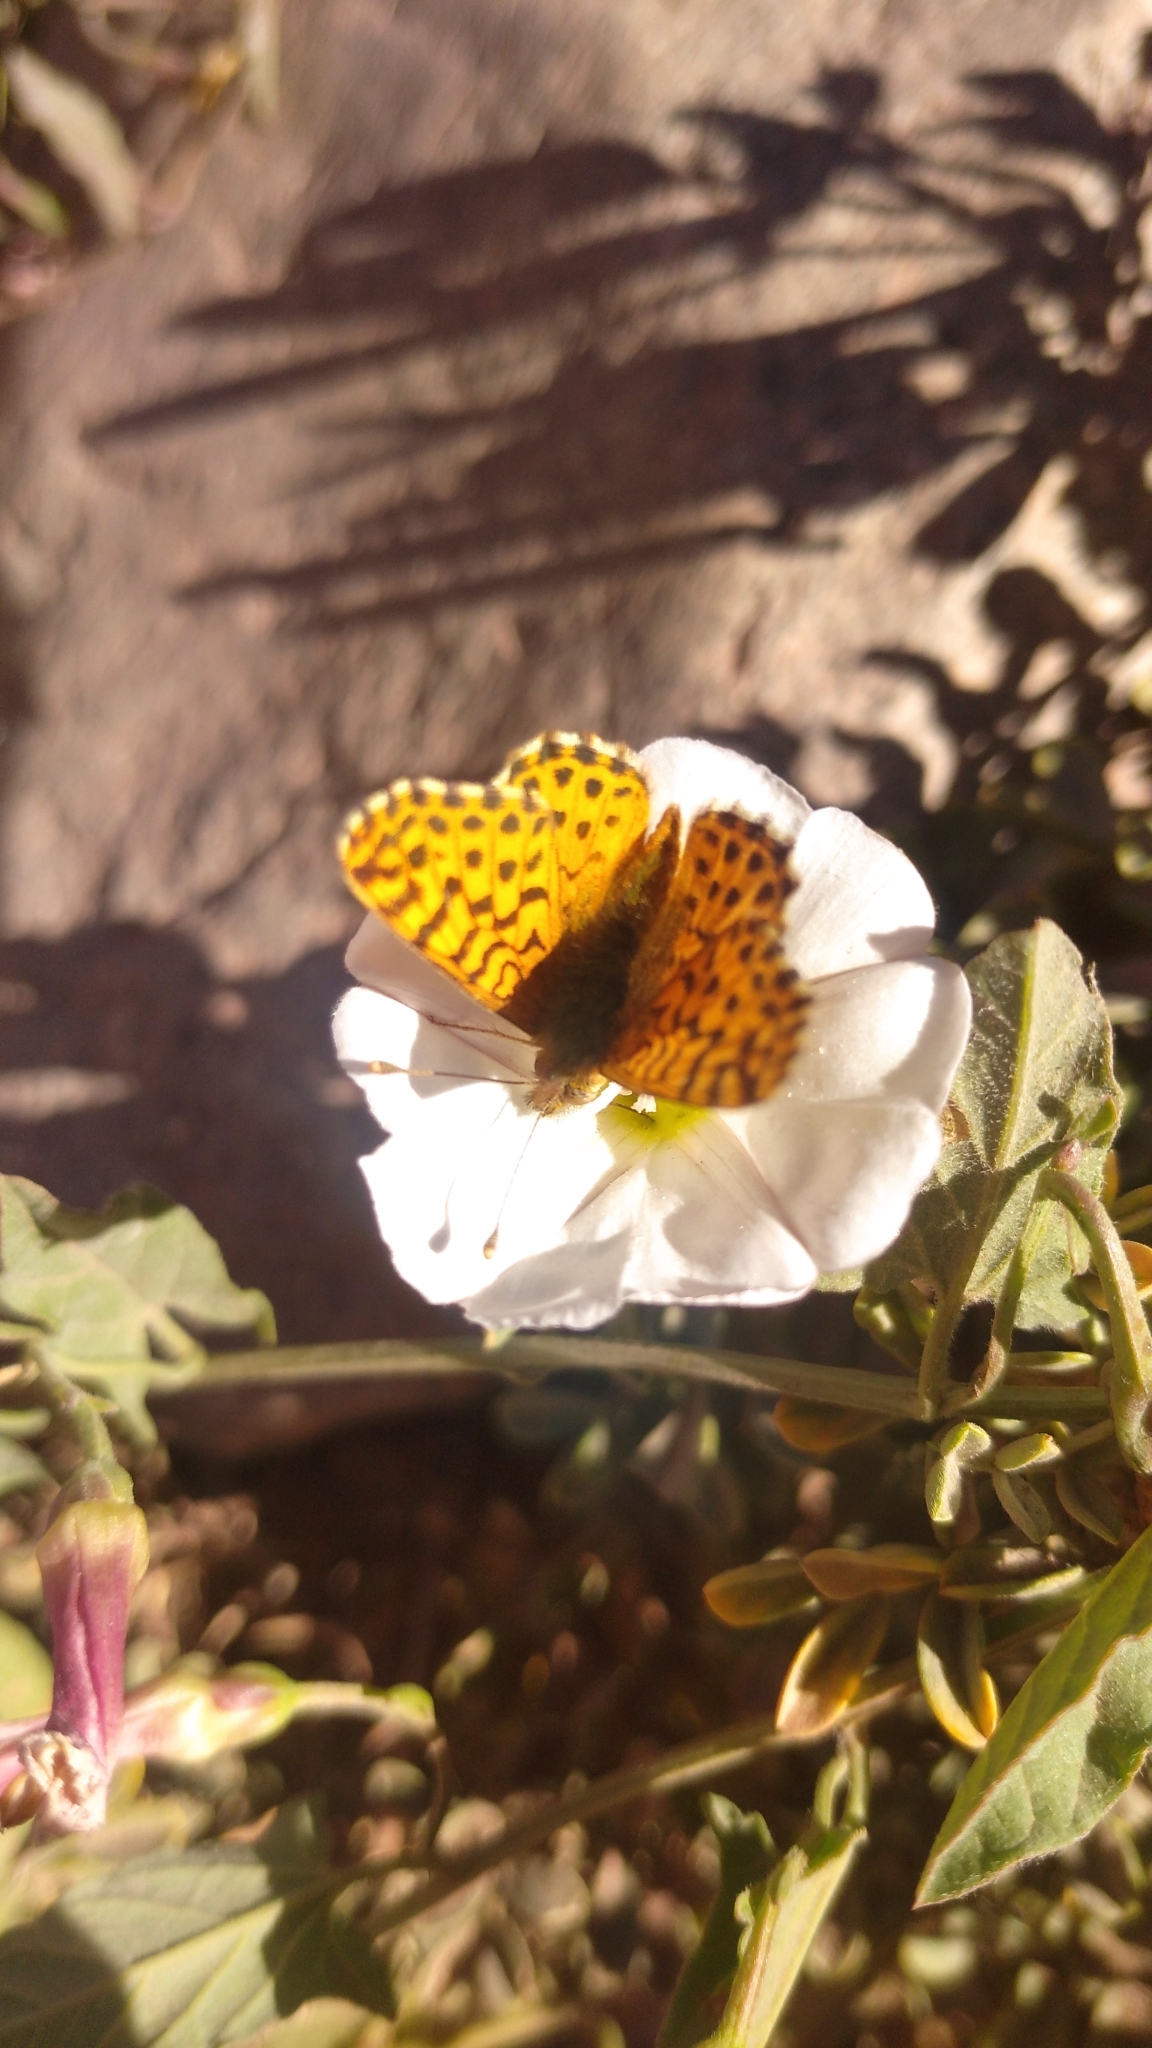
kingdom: Animalia
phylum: Arthropoda
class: Insecta
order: Lepidoptera
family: Nymphalidae
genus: Issoria
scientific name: Issoria Yramea lathonoides
